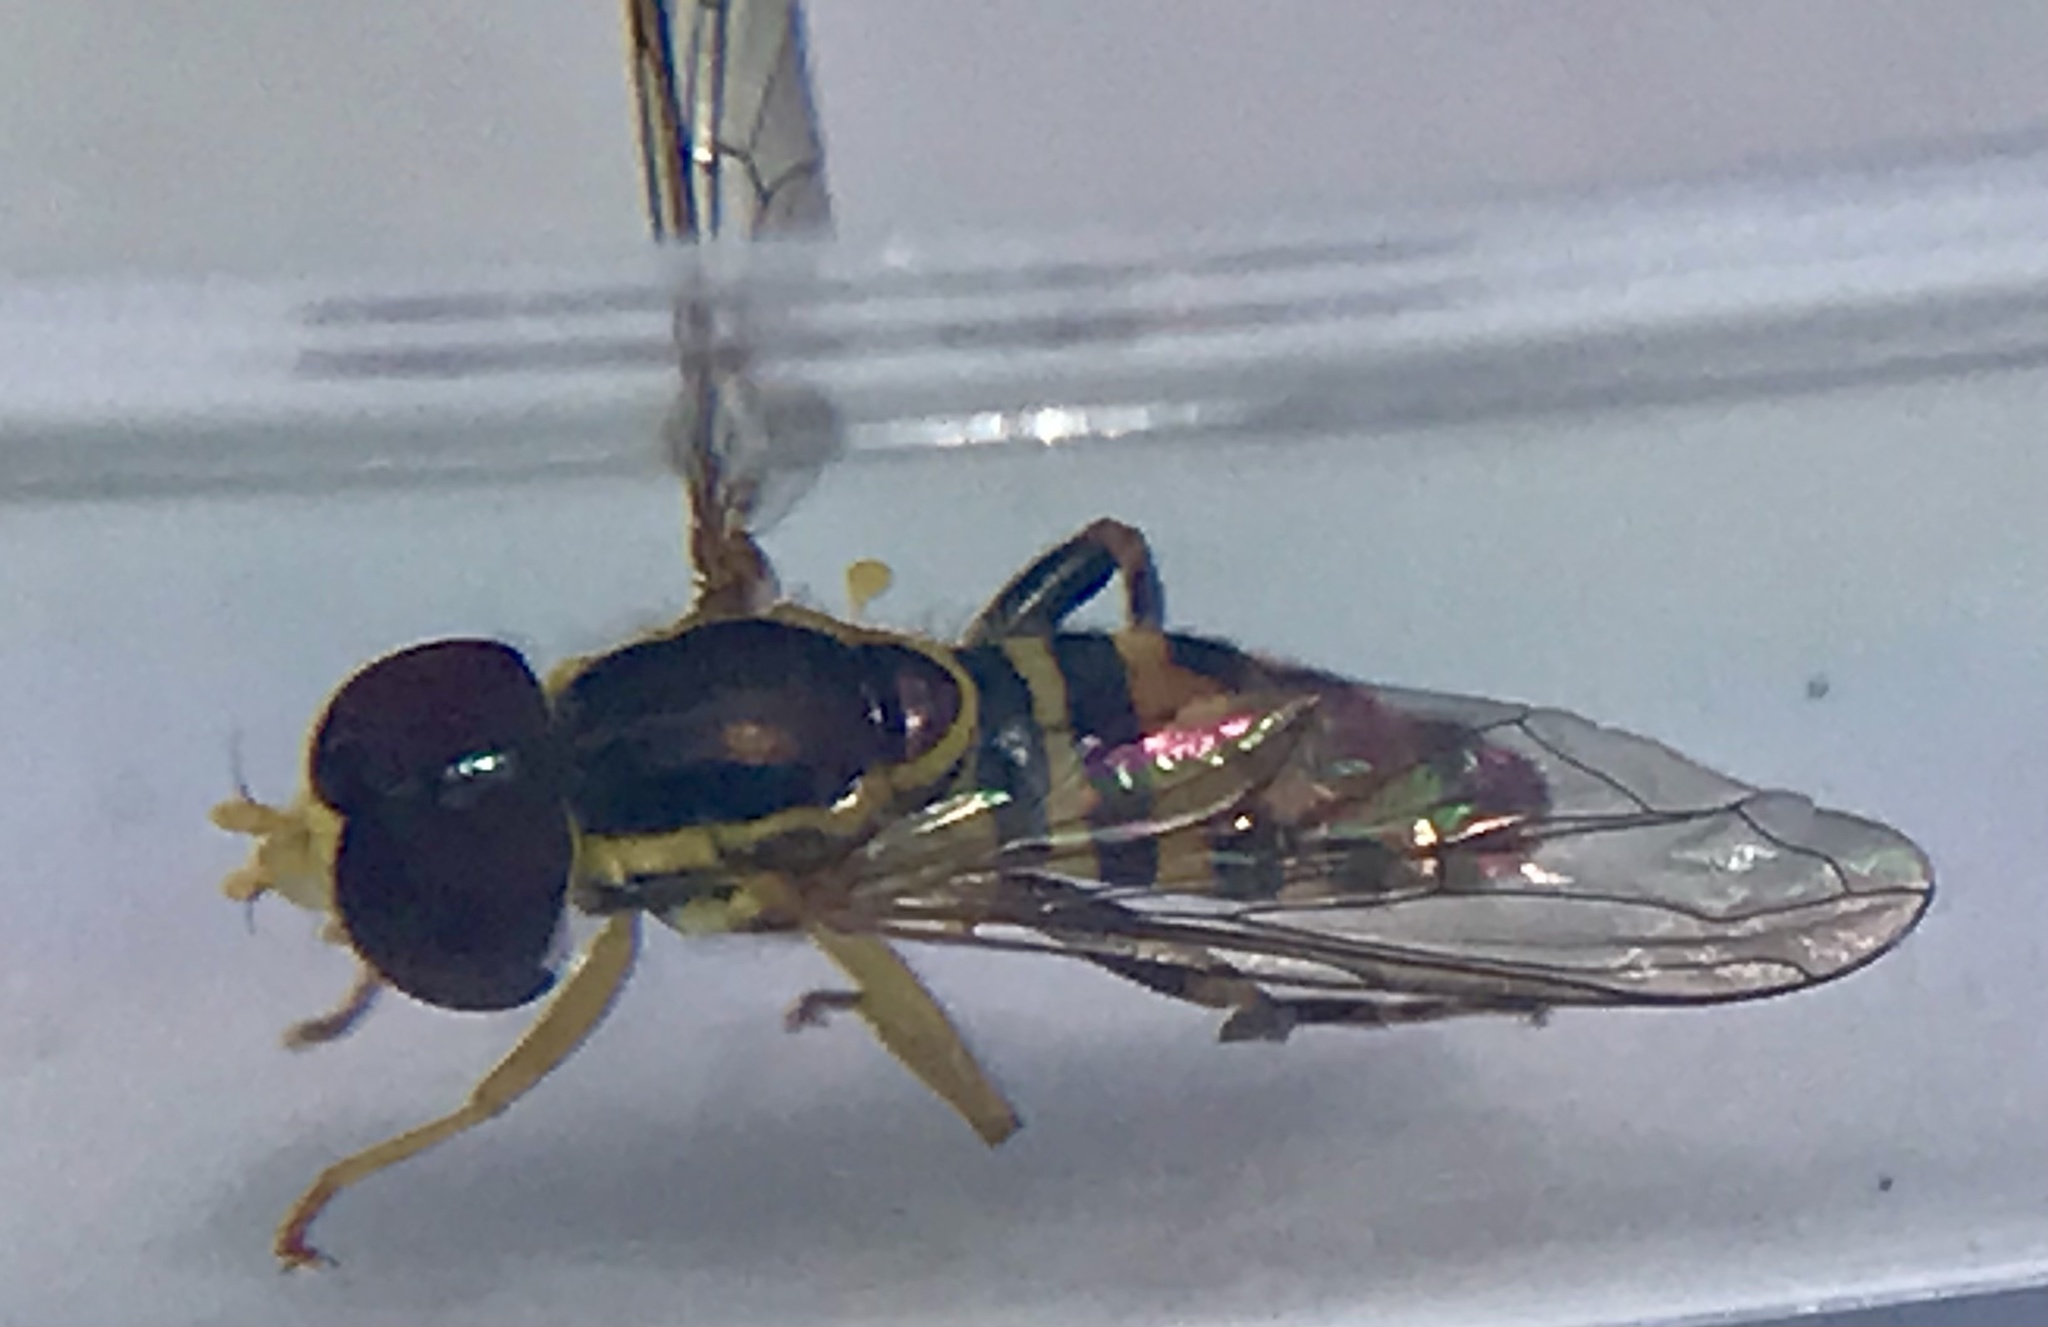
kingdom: Animalia
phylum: Arthropoda
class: Insecta
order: Diptera
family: Syrphidae
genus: Toxomerus
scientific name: Toxomerus geminatus
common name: Eastern calligrapher
